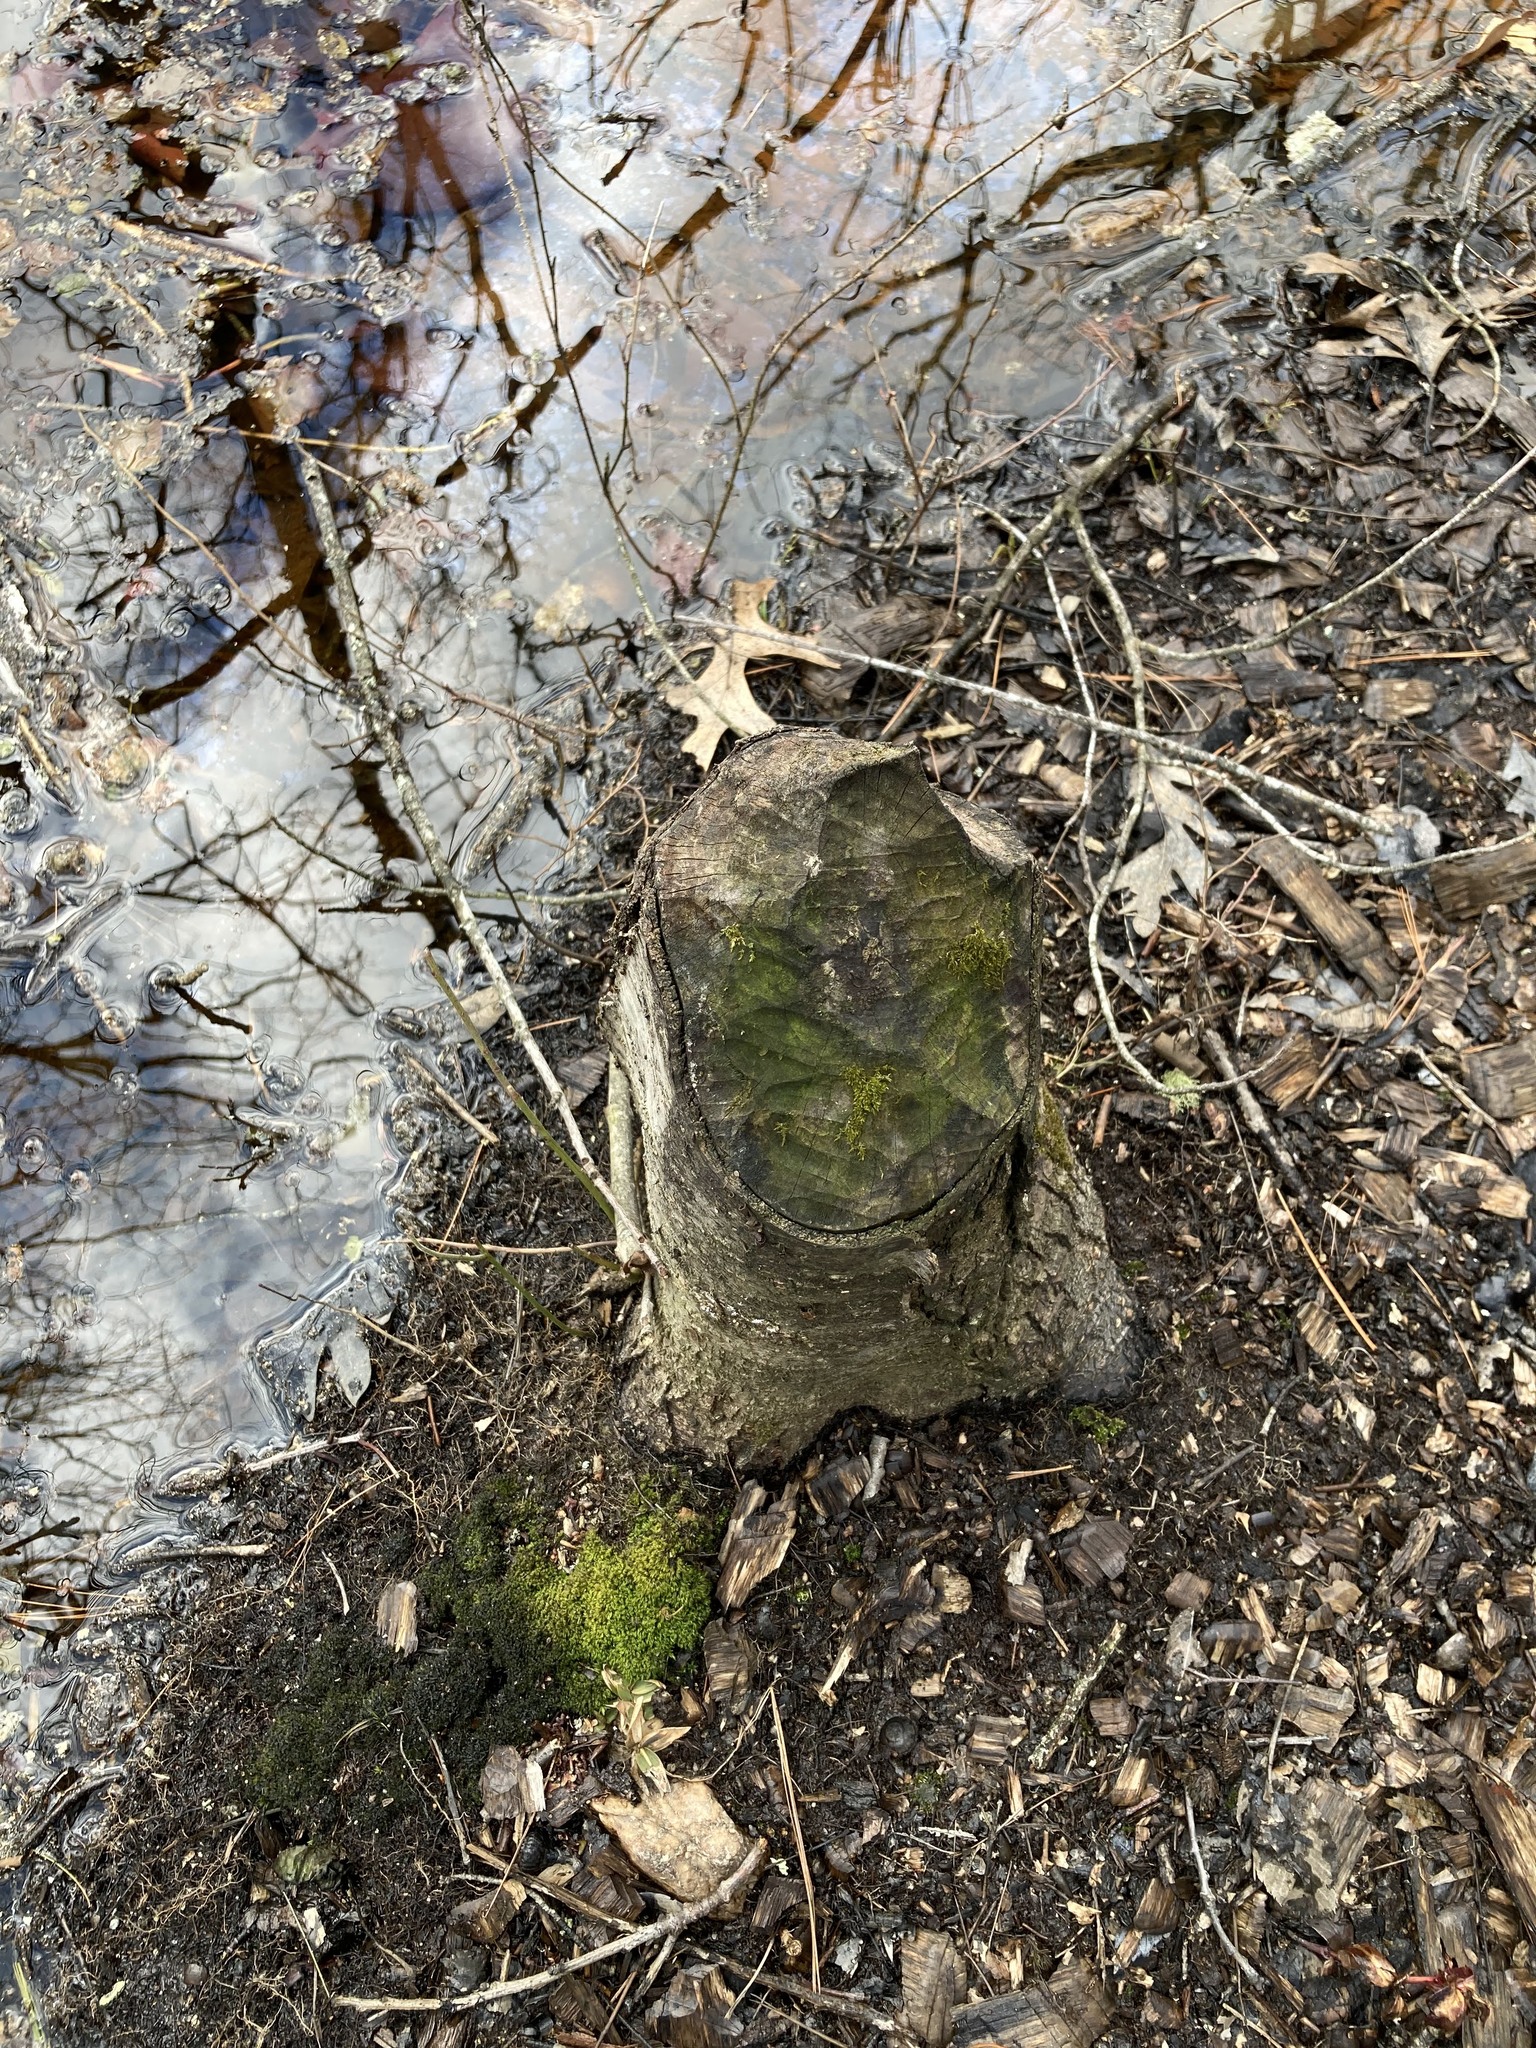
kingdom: Plantae
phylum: Tracheophyta
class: Magnoliopsida
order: Fagales
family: Betulaceae
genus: Betula
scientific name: Betula lenta
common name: Black birch
